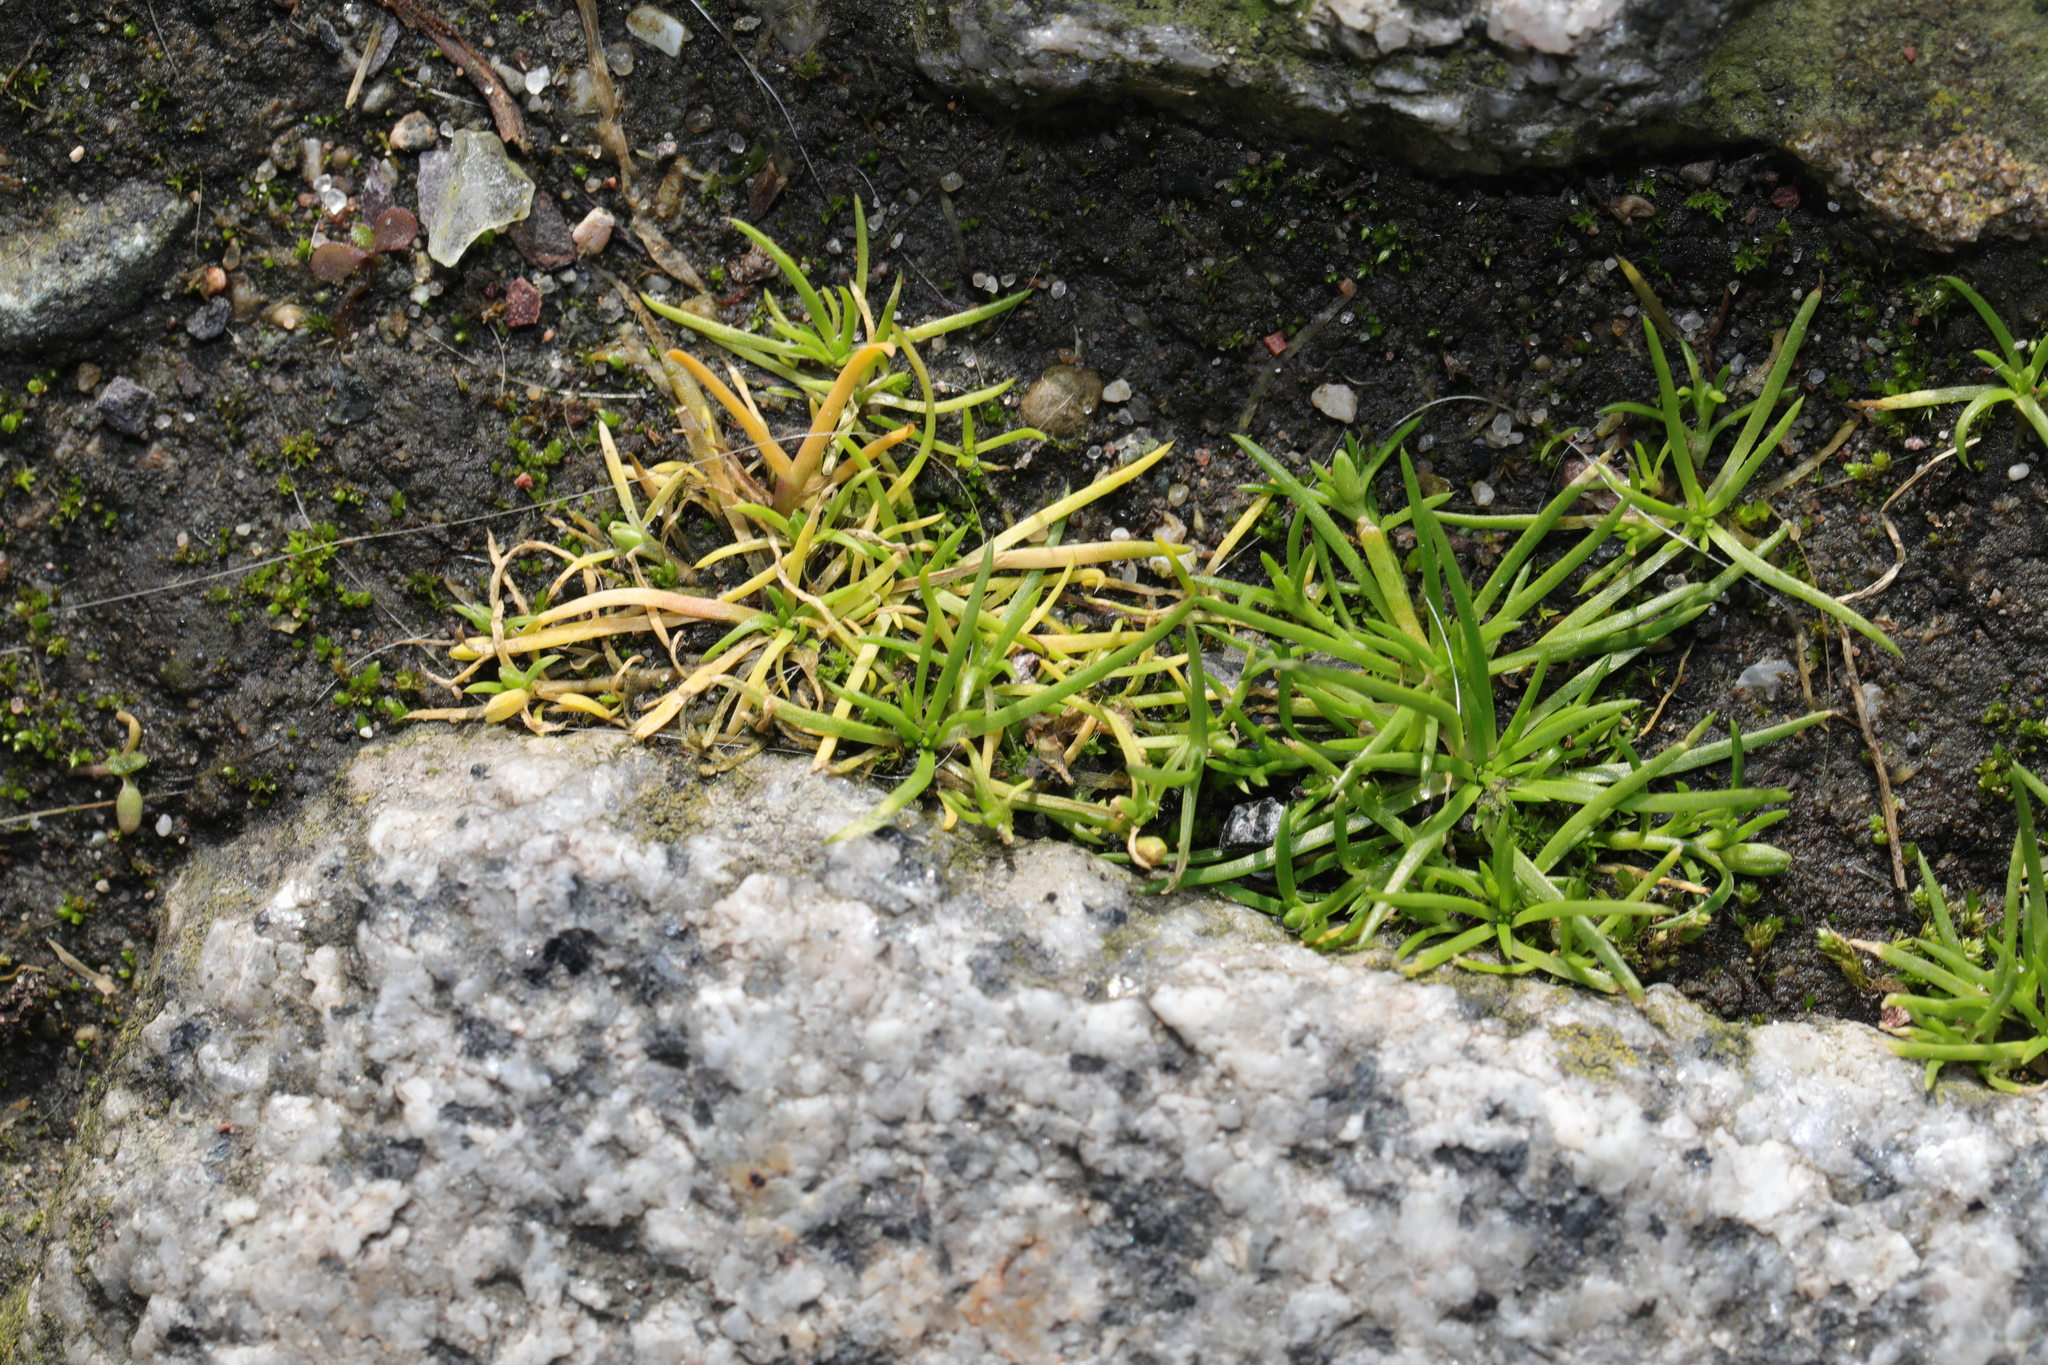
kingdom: Plantae
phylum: Tracheophyta
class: Magnoliopsida
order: Caryophyllales
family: Caryophyllaceae
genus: Sagina
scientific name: Sagina procumbens
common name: Procumbent pearlwort
